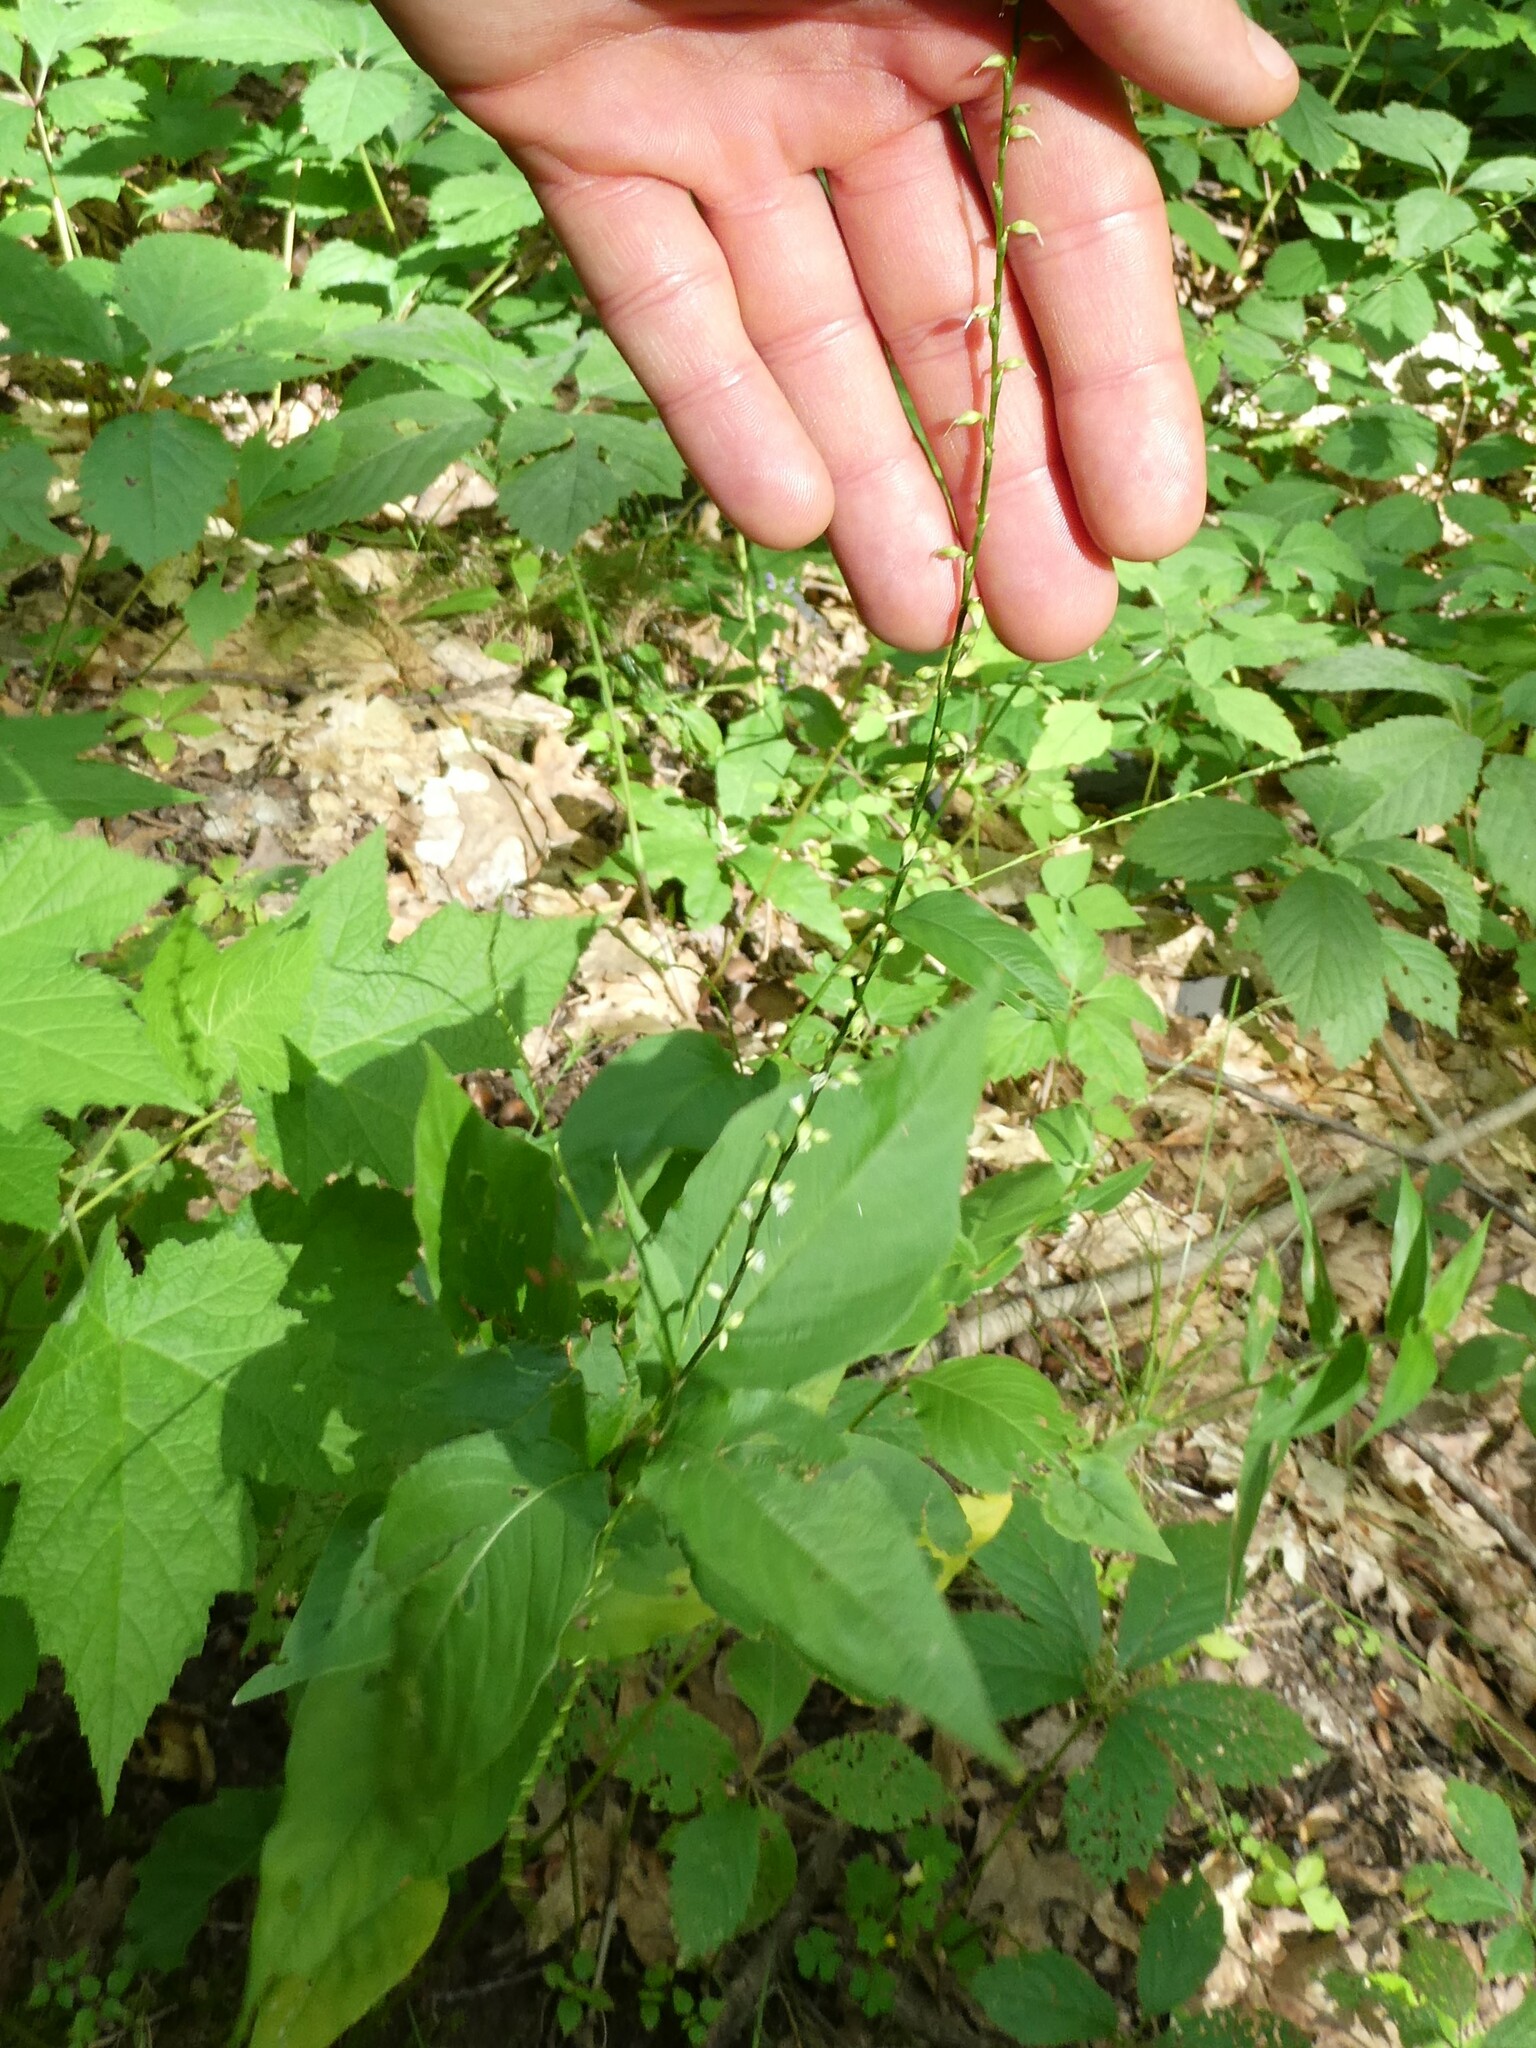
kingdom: Plantae
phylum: Tracheophyta
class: Magnoliopsida
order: Caryophyllales
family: Polygonaceae
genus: Persicaria
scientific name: Persicaria virginiana
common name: Jumpseed
